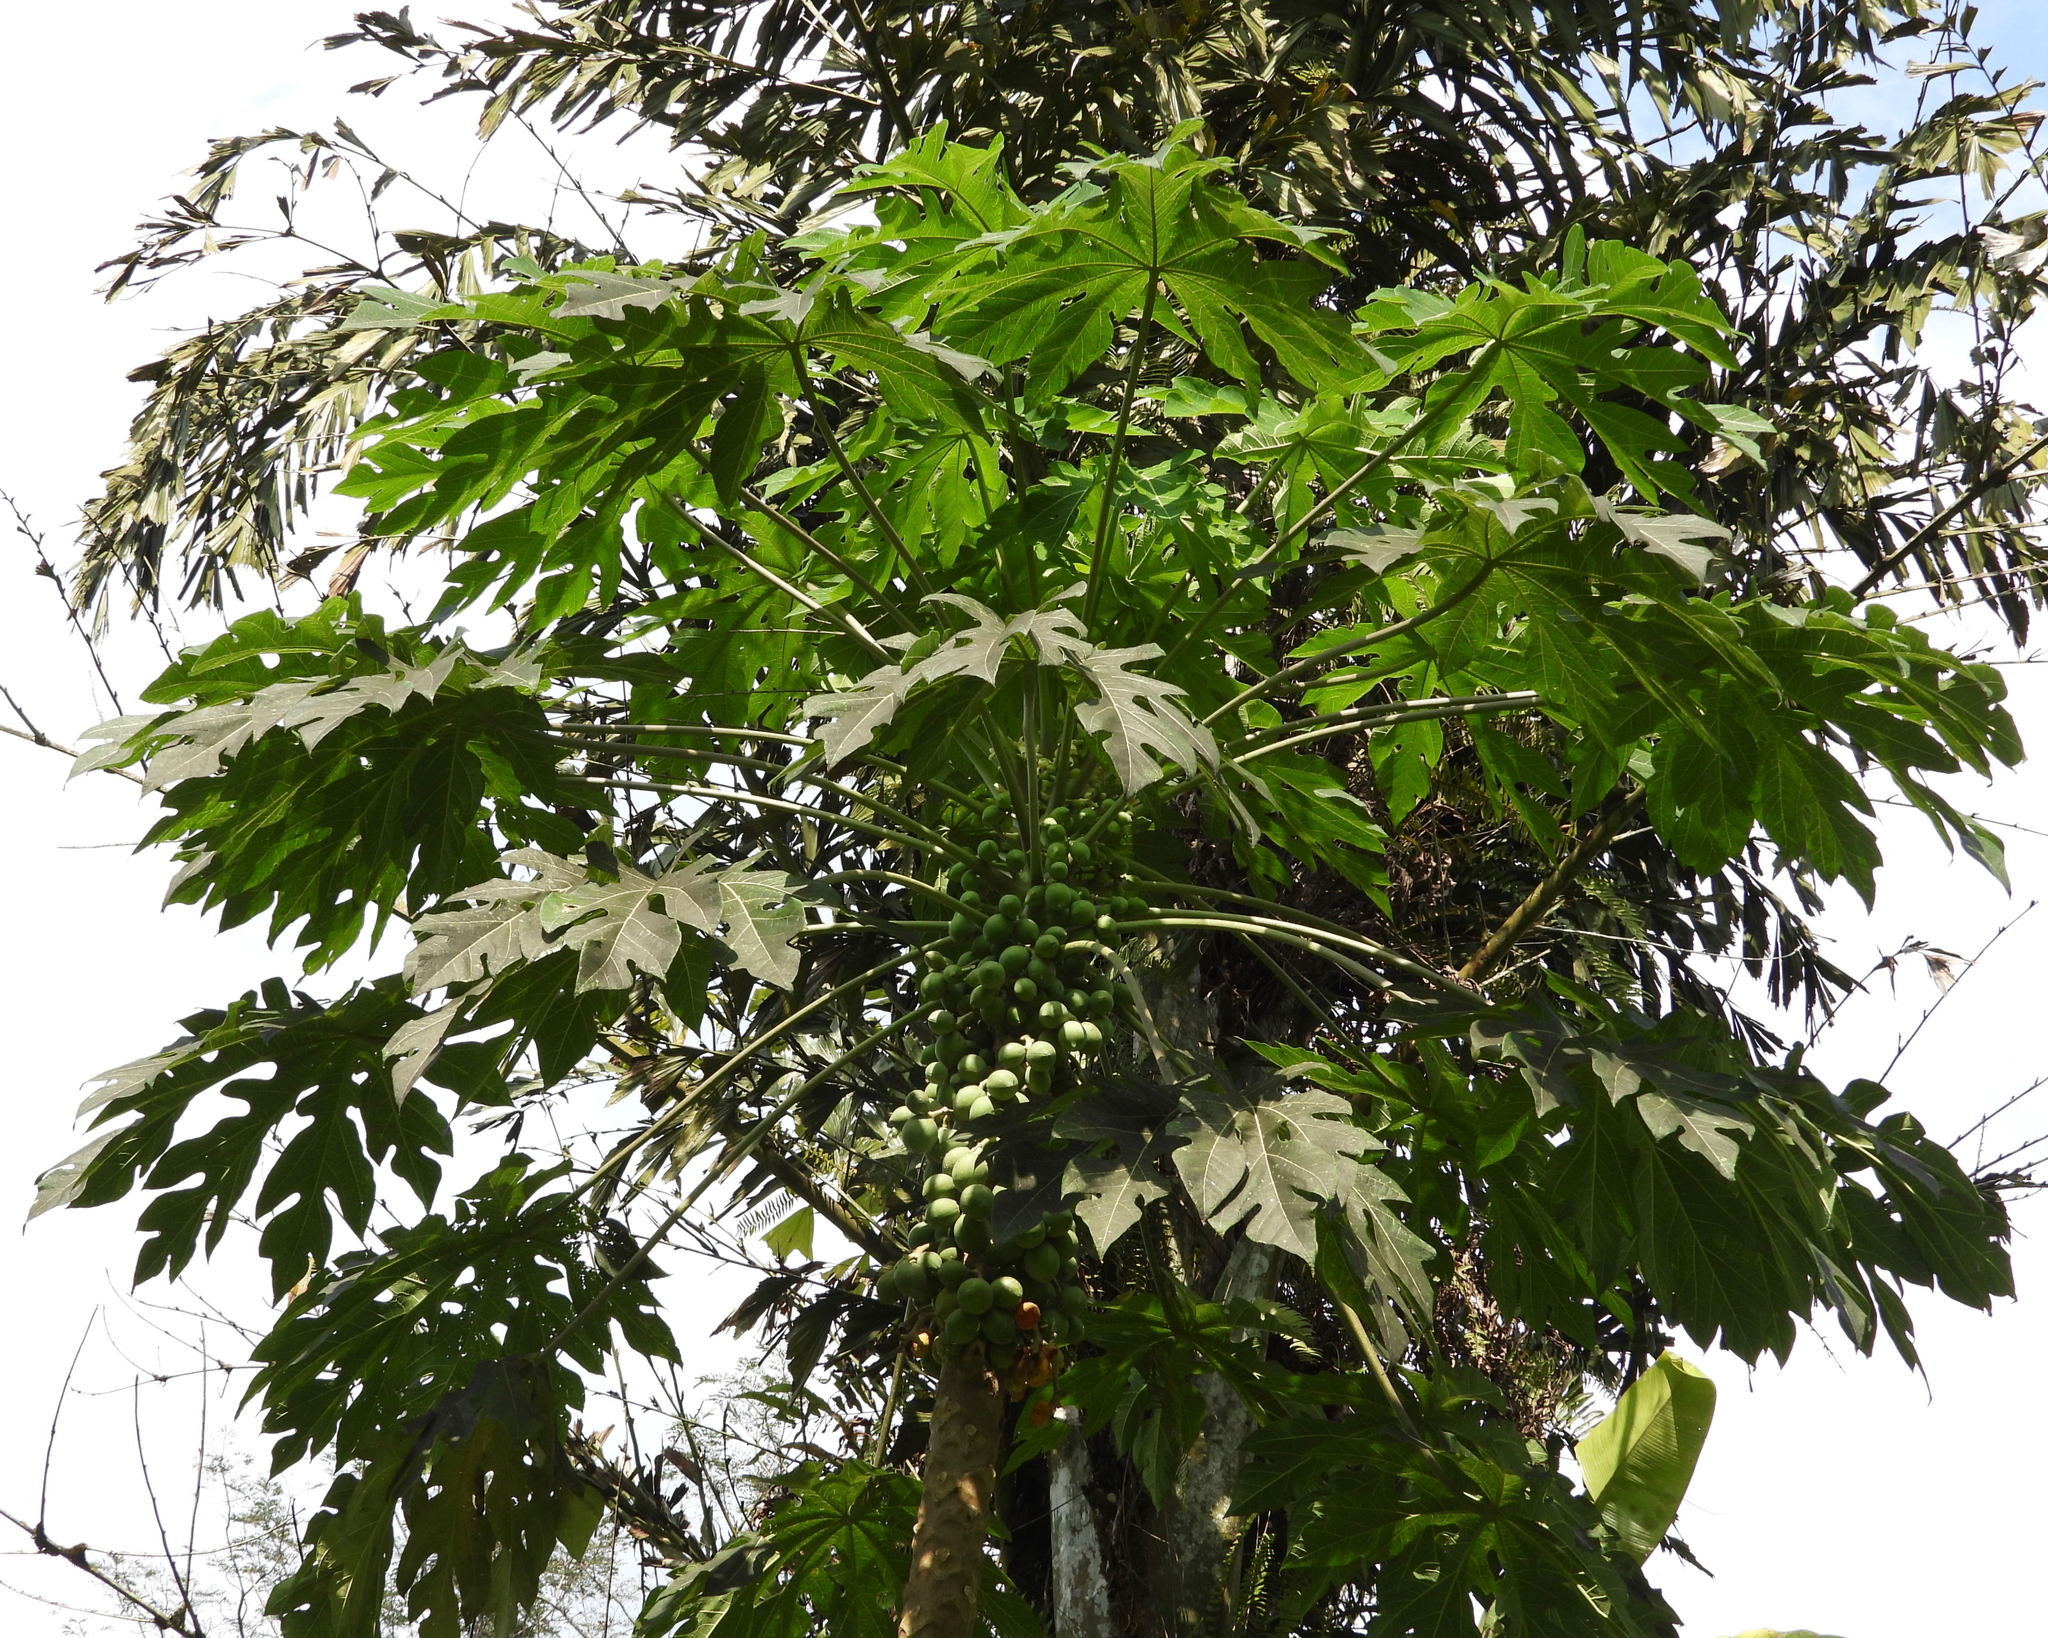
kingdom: Plantae
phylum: Tracheophyta
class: Magnoliopsida
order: Brassicales
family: Caricaceae
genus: Carica
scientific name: Carica papaya
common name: Papaya
